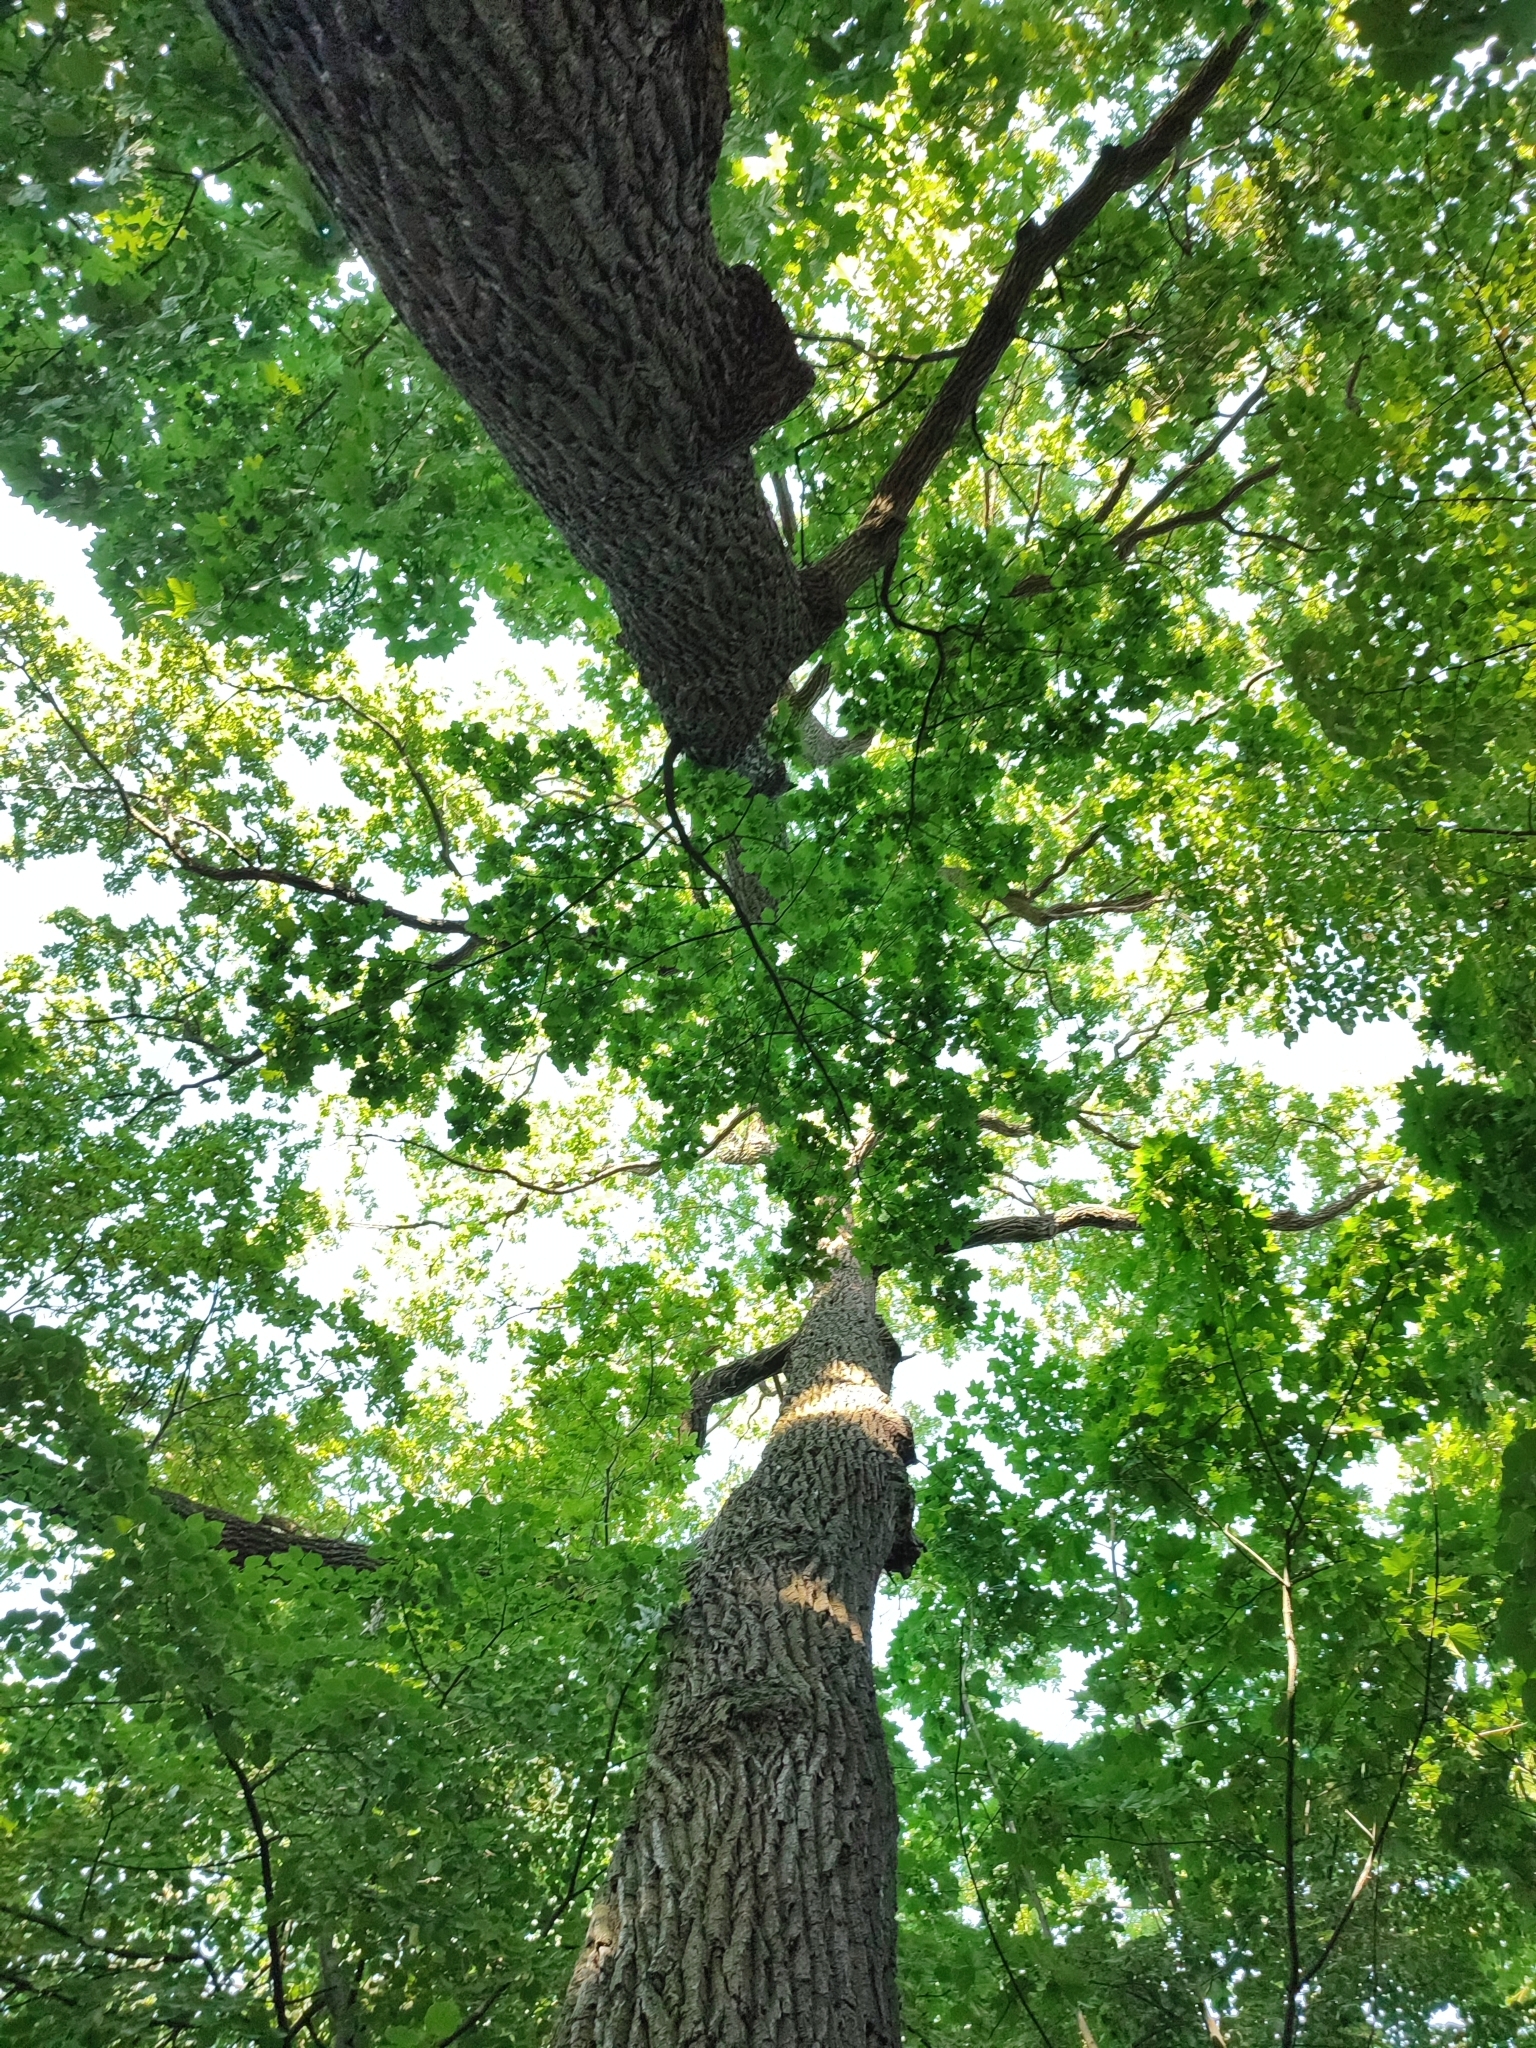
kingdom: Plantae
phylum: Tracheophyta
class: Magnoliopsida
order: Fagales
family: Fagaceae
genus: Quercus
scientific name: Quercus robur
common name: Pedunculate oak
